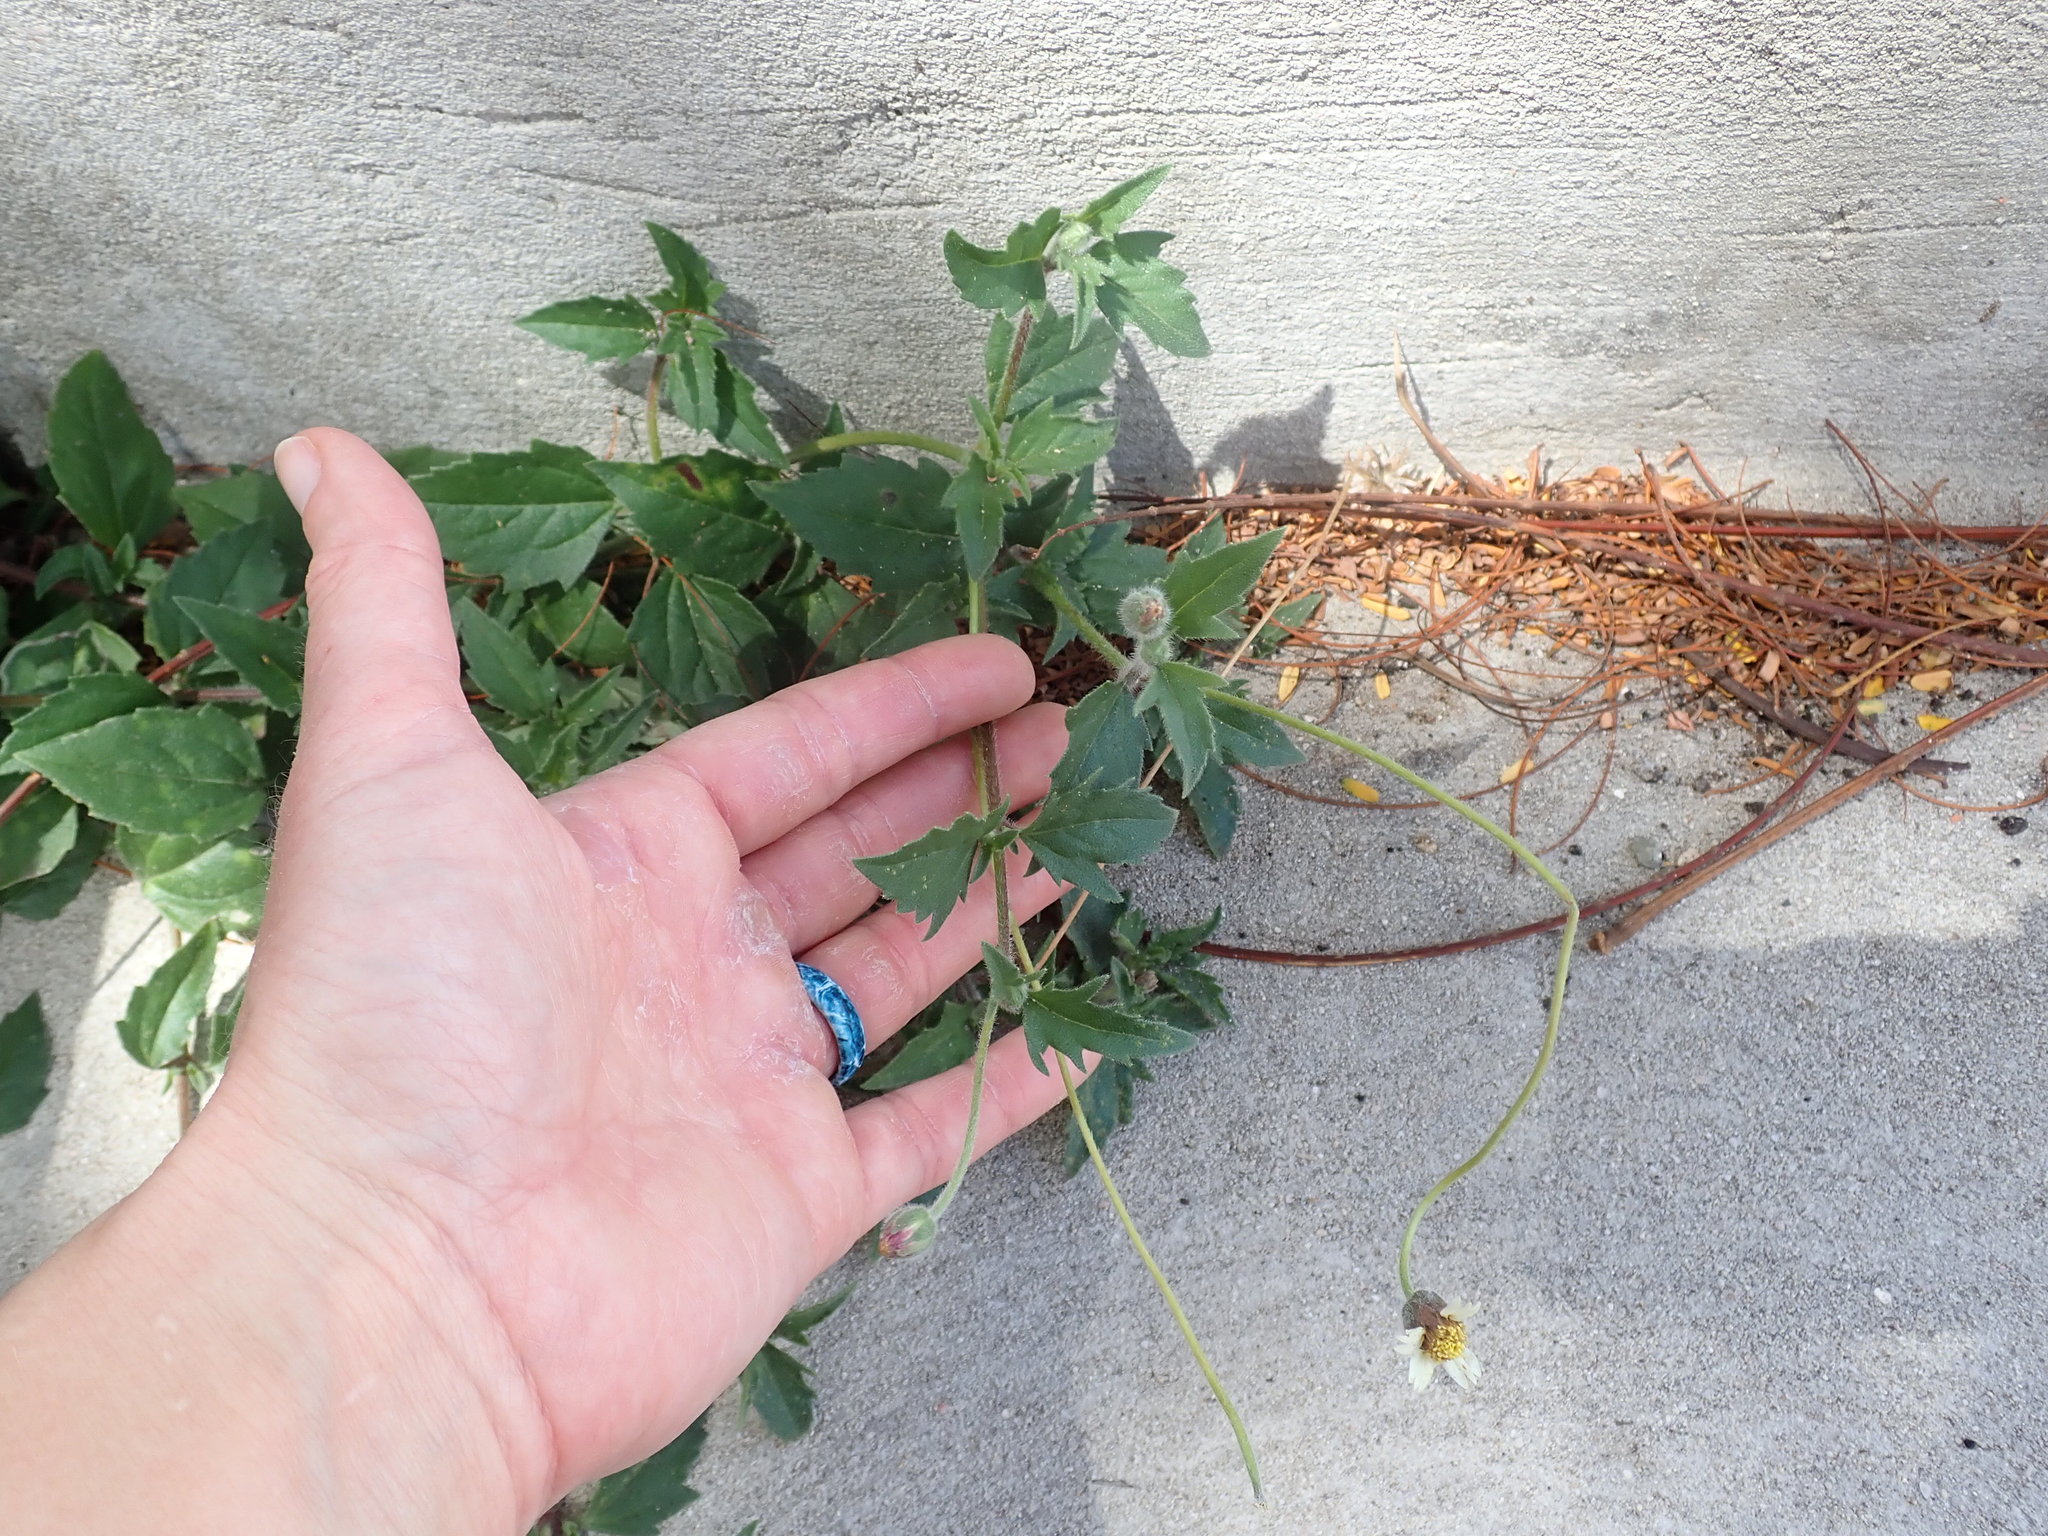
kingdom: Plantae
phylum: Tracheophyta
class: Magnoliopsida
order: Asterales
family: Asteraceae
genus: Tridax
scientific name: Tridax procumbens
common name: Coatbuttons
